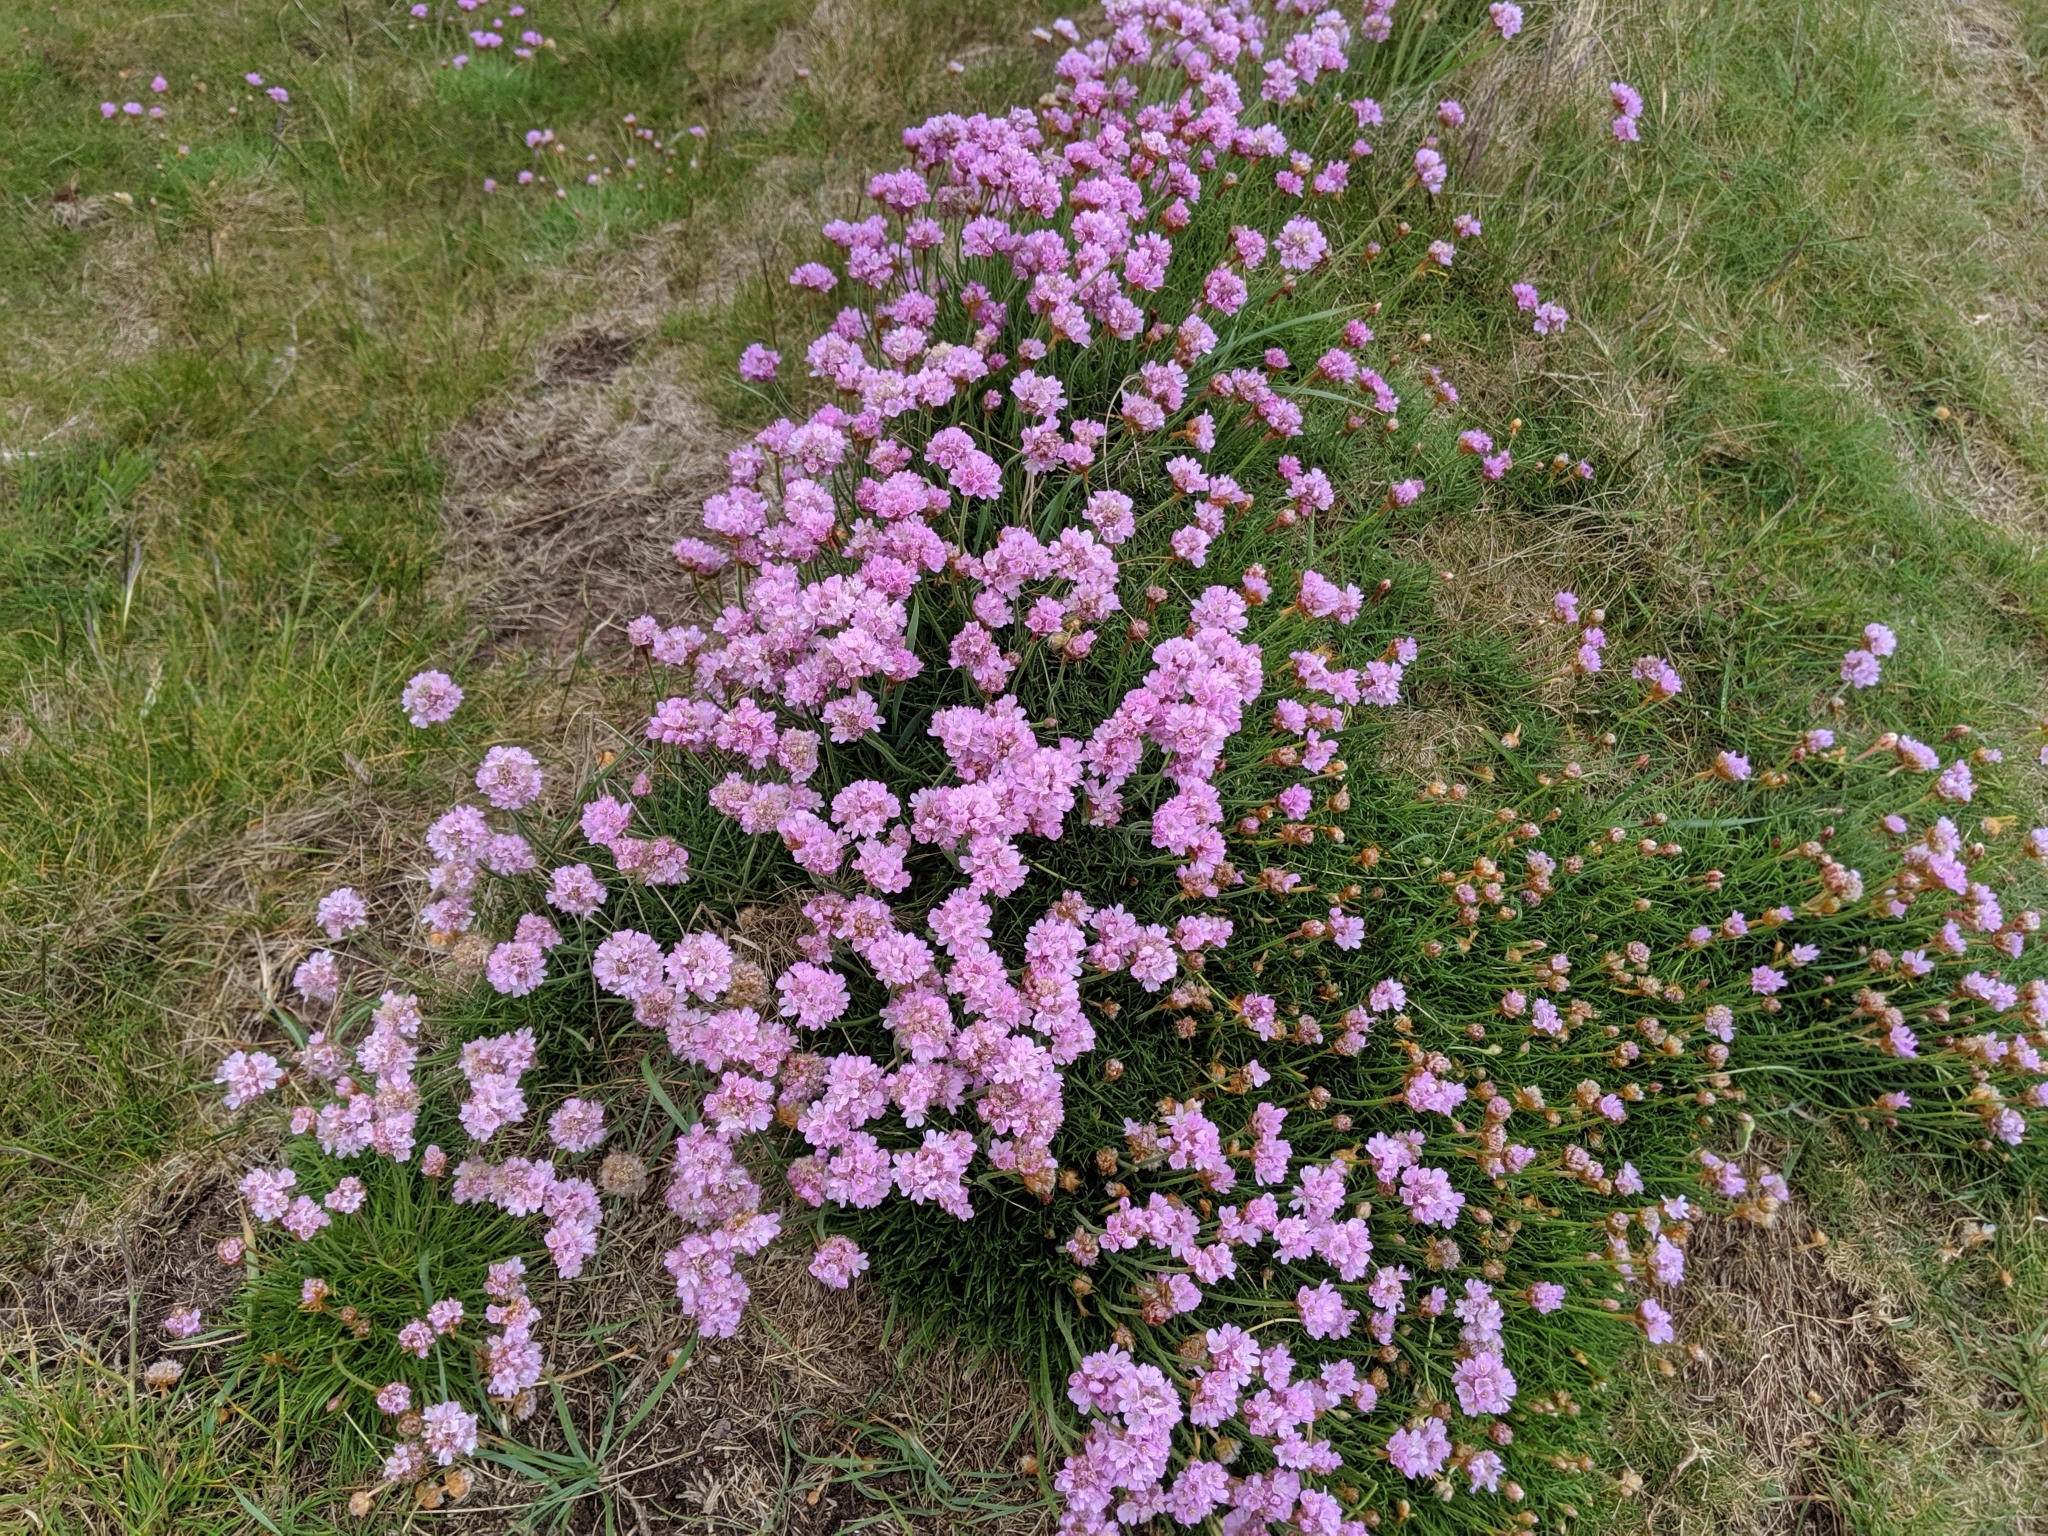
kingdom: Plantae
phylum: Tracheophyta
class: Magnoliopsida
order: Caryophyllales
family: Plumbaginaceae
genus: Armeria
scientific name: Armeria maritima
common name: Thrift
